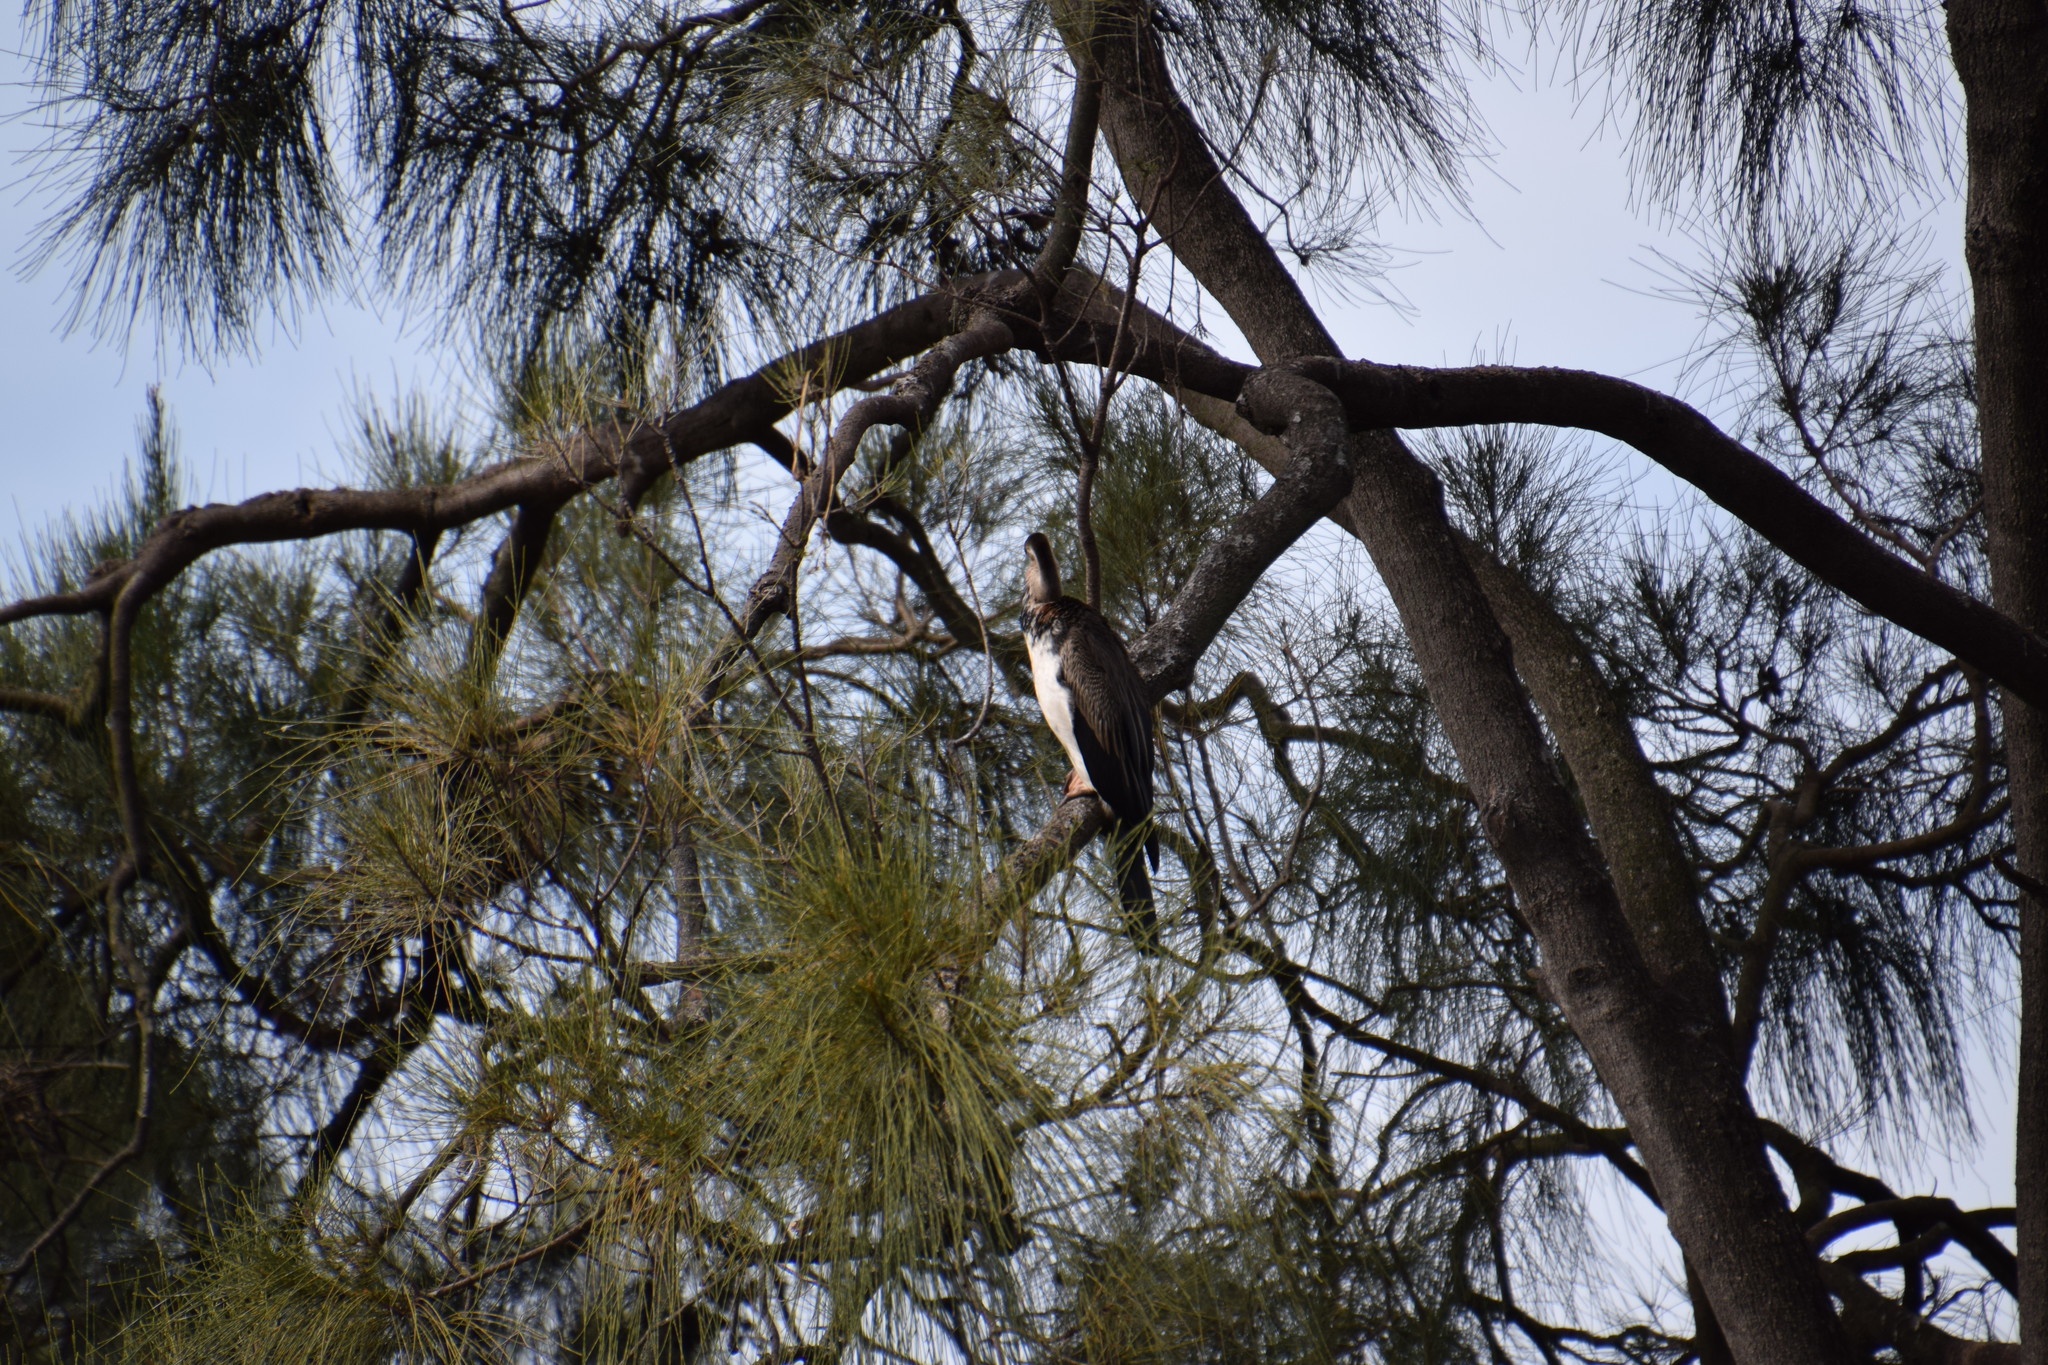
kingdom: Animalia
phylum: Chordata
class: Aves
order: Suliformes
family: Anhingidae
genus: Anhinga
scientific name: Anhinga novaehollandiae
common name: Australasian darter
